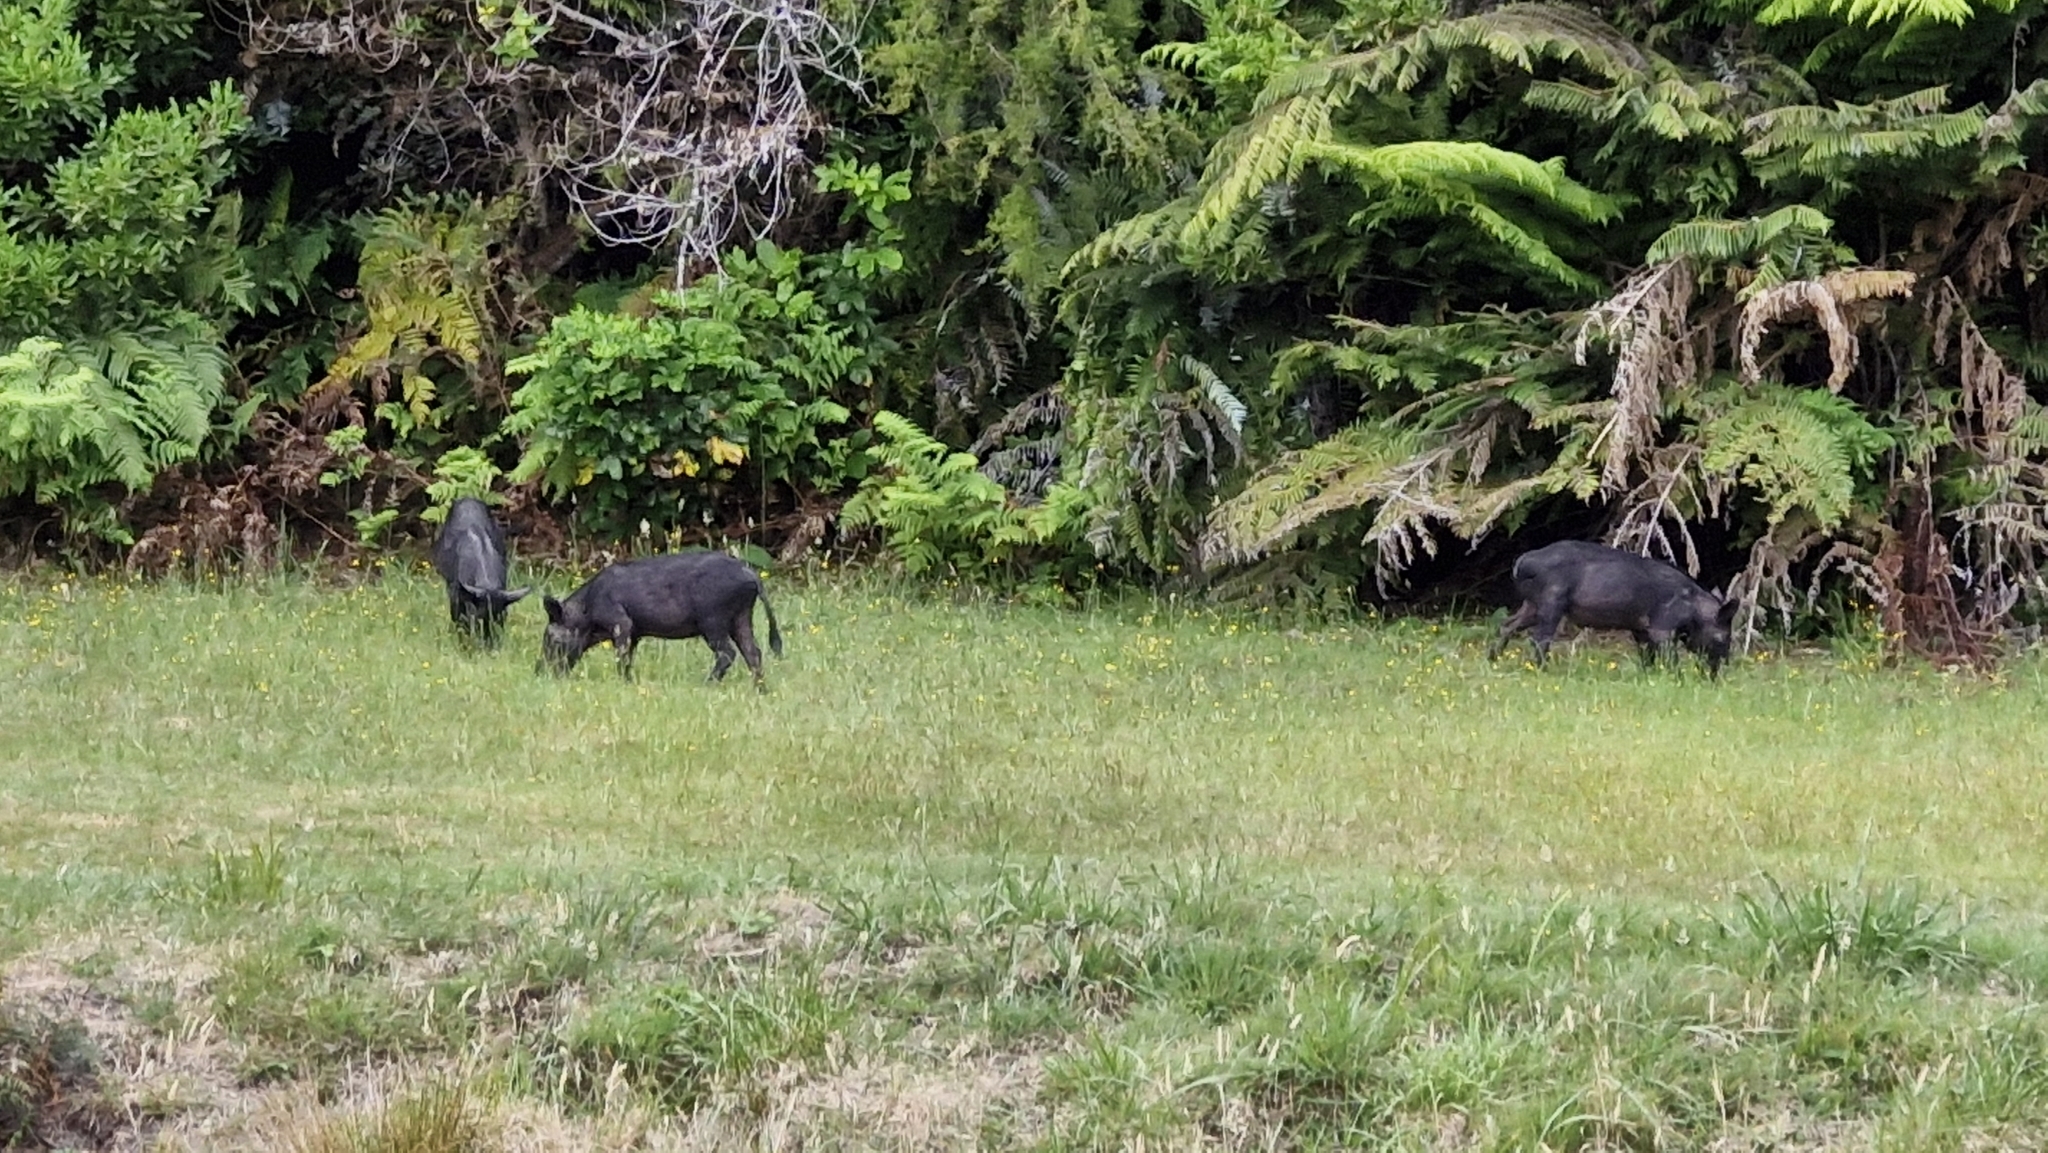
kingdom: Animalia
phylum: Chordata
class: Mammalia
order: Artiodactyla
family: Suidae
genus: Sus
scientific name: Sus scrofa
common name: Wild boar
